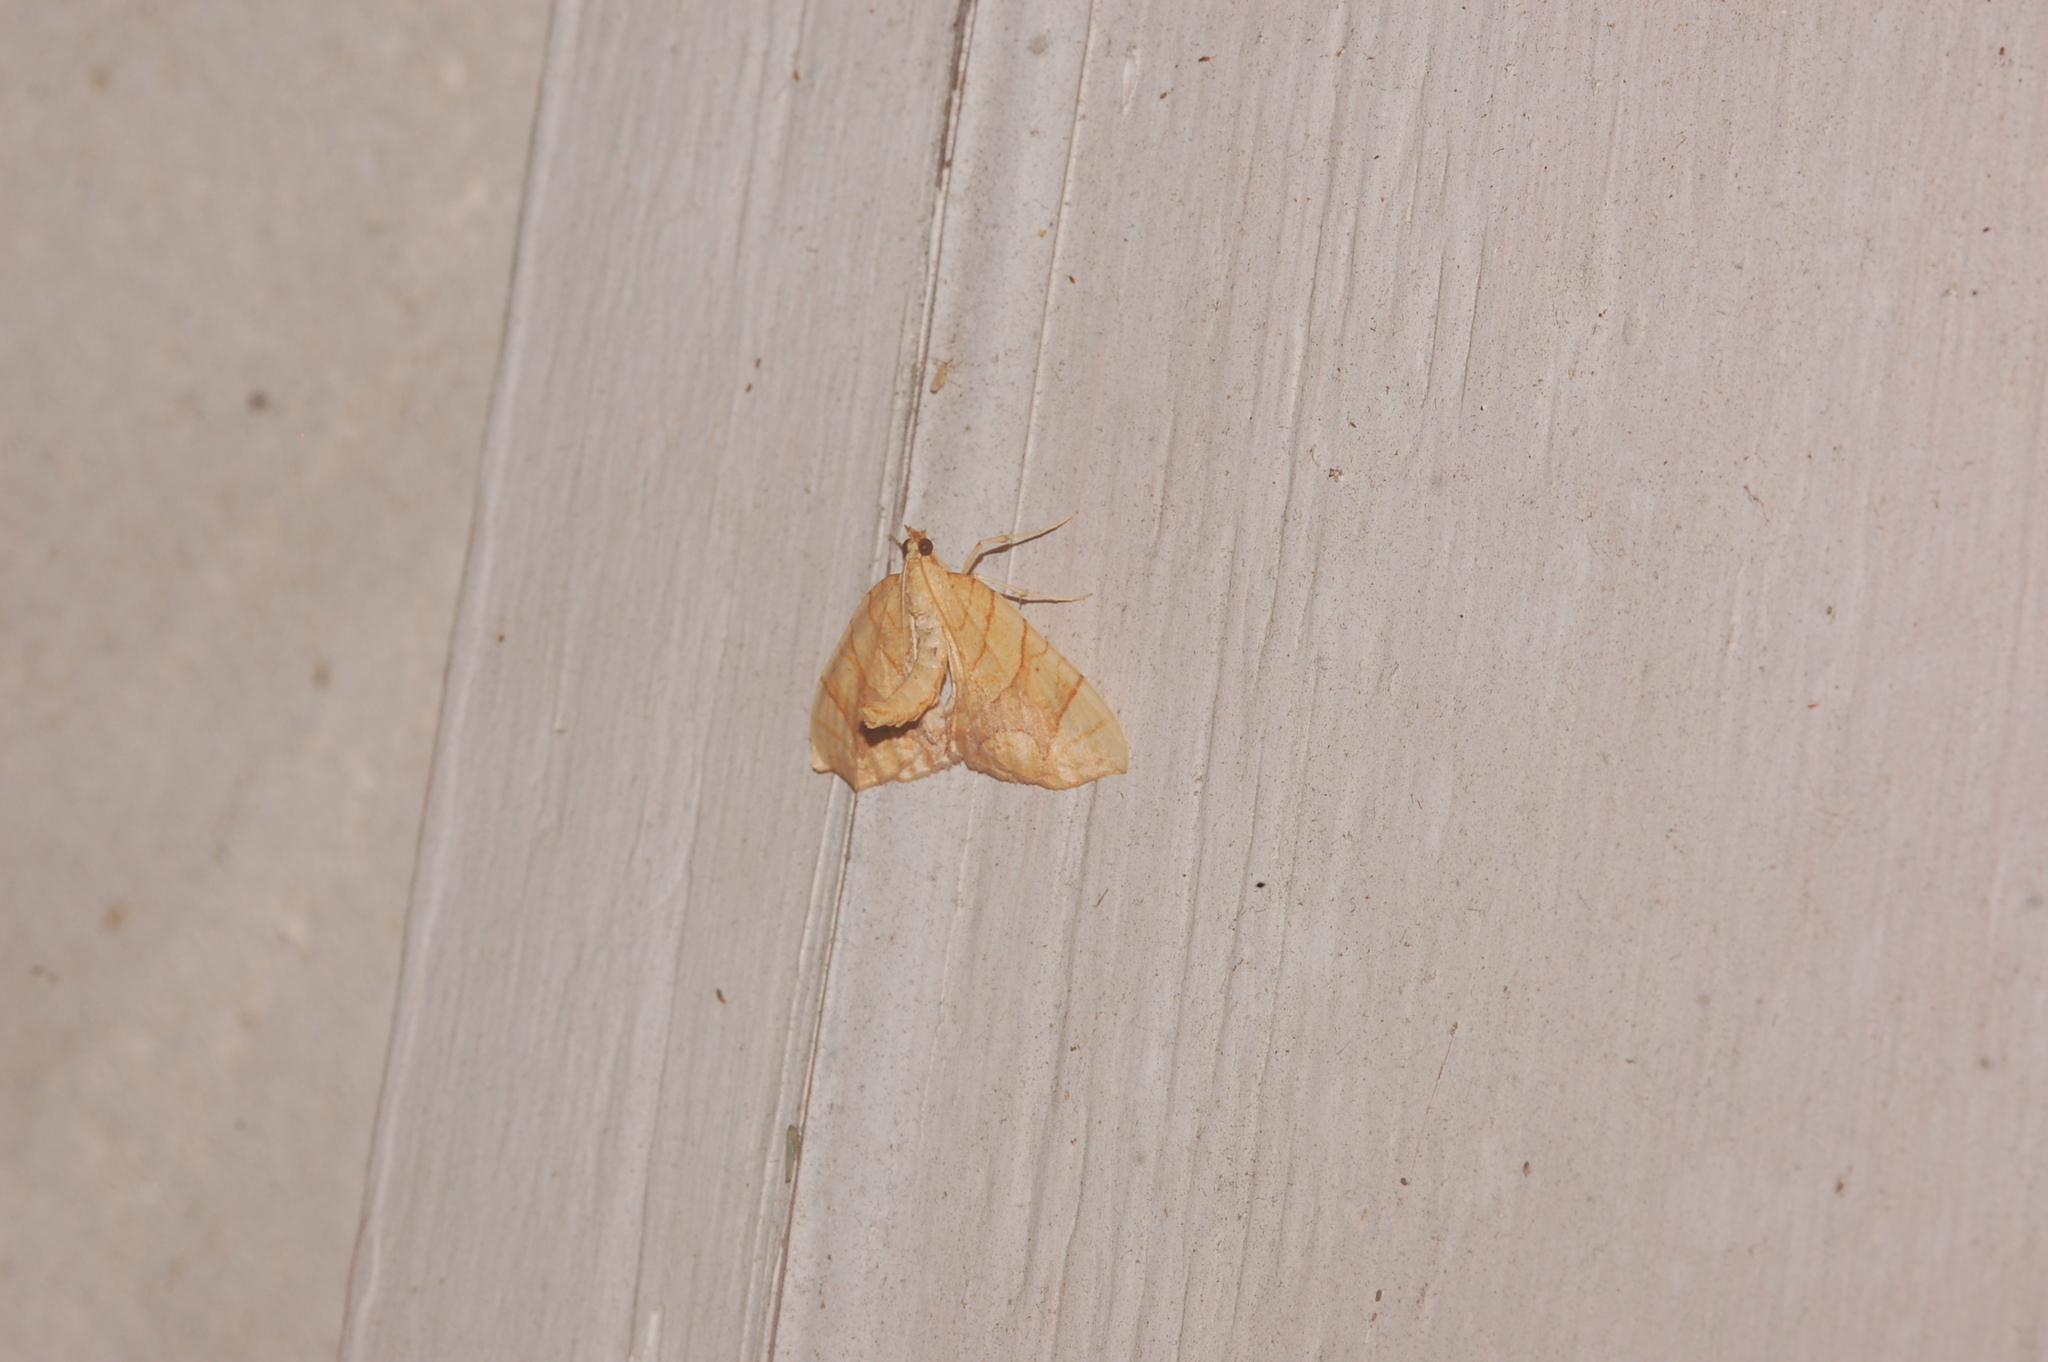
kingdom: Animalia
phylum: Arthropoda
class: Insecta
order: Lepidoptera
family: Geometridae
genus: Eulithis
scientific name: Eulithis
